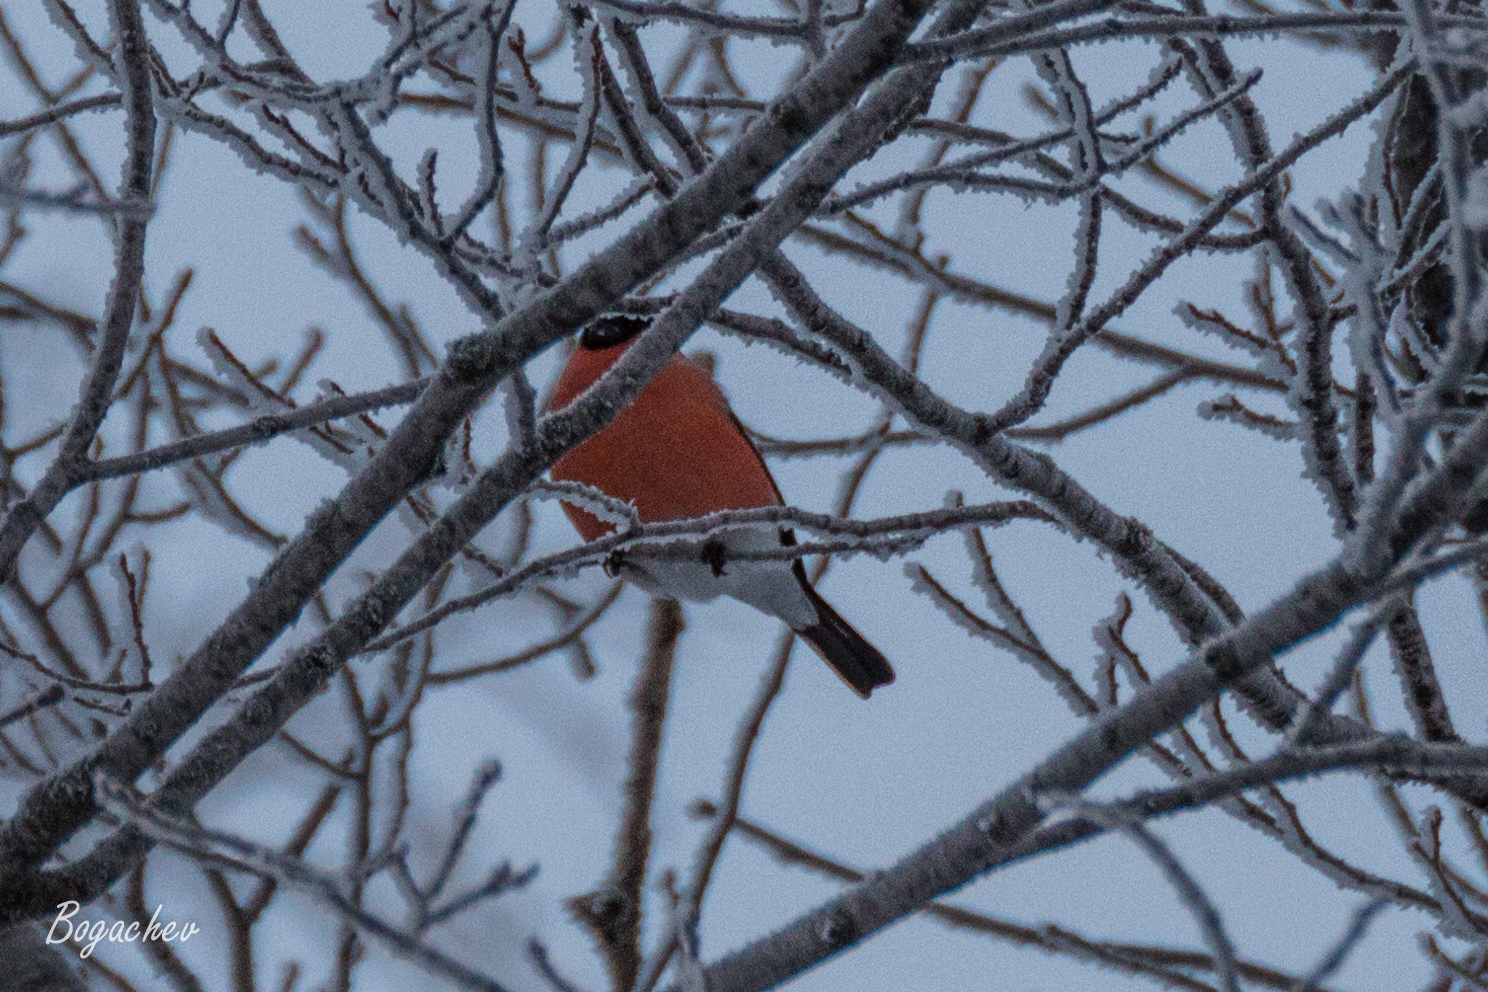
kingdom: Animalia
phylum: Chordata
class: Aves
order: Passeriformes
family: Fringillidae
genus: Pyrrhula
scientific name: Pyrrhula pyrrhula
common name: Eurasian bullfinch
